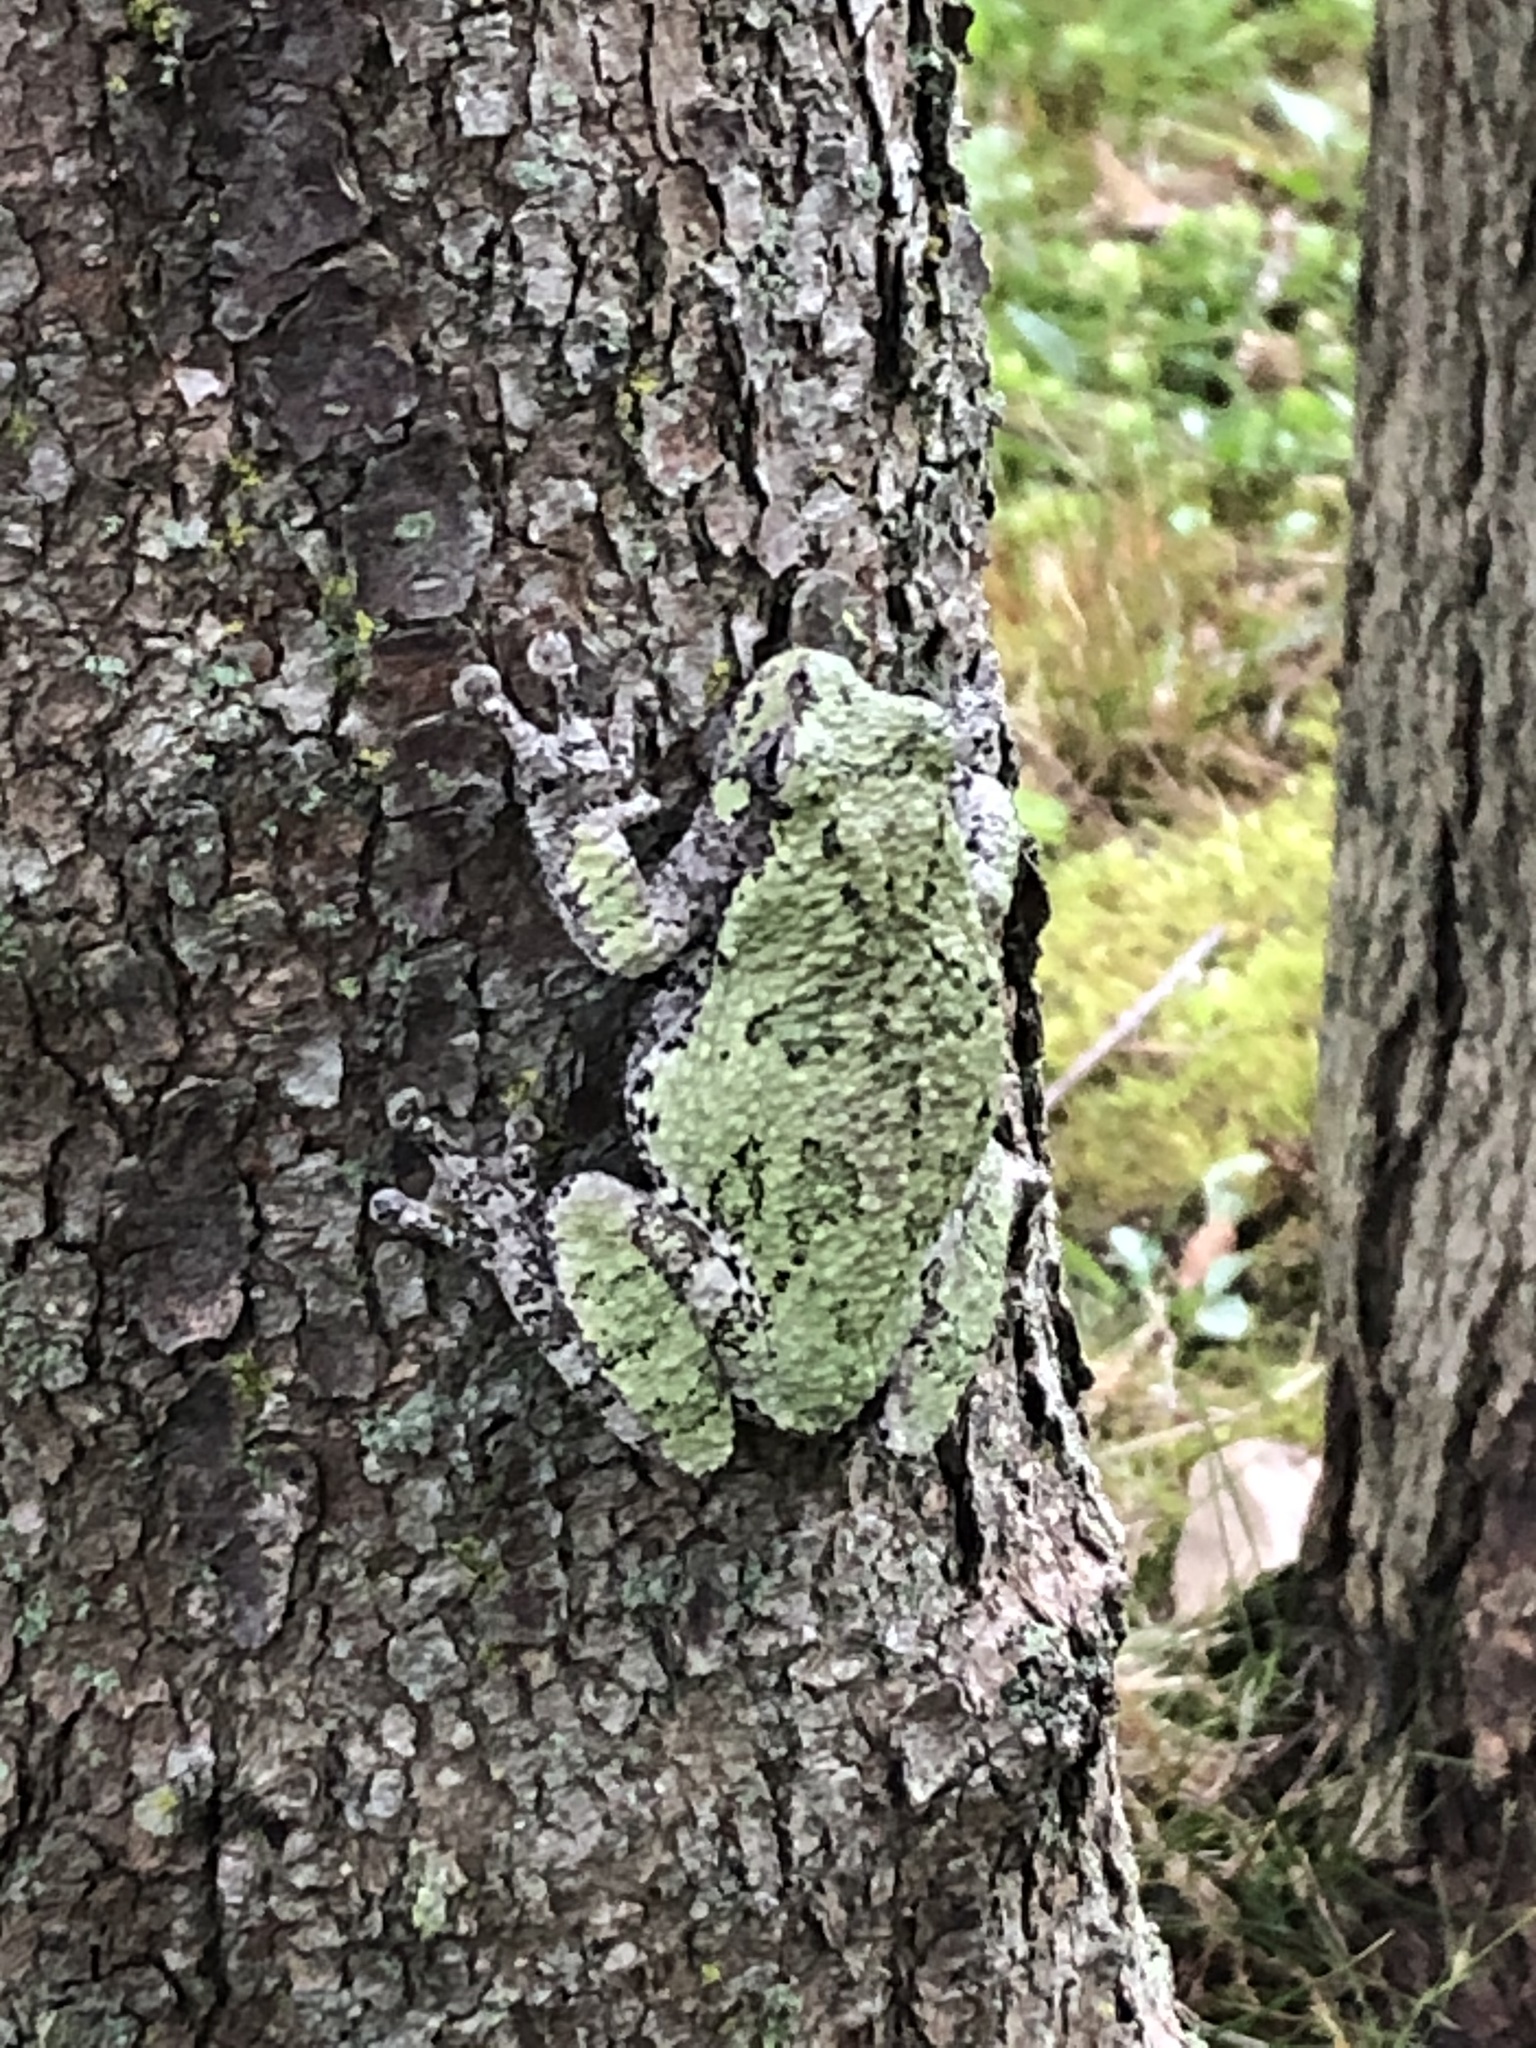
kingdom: Animalia
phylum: Chordata
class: Amphibia
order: Anura
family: Hylidae
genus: Dryophytes
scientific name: Dryophytes versicolor
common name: Gray treefrog
